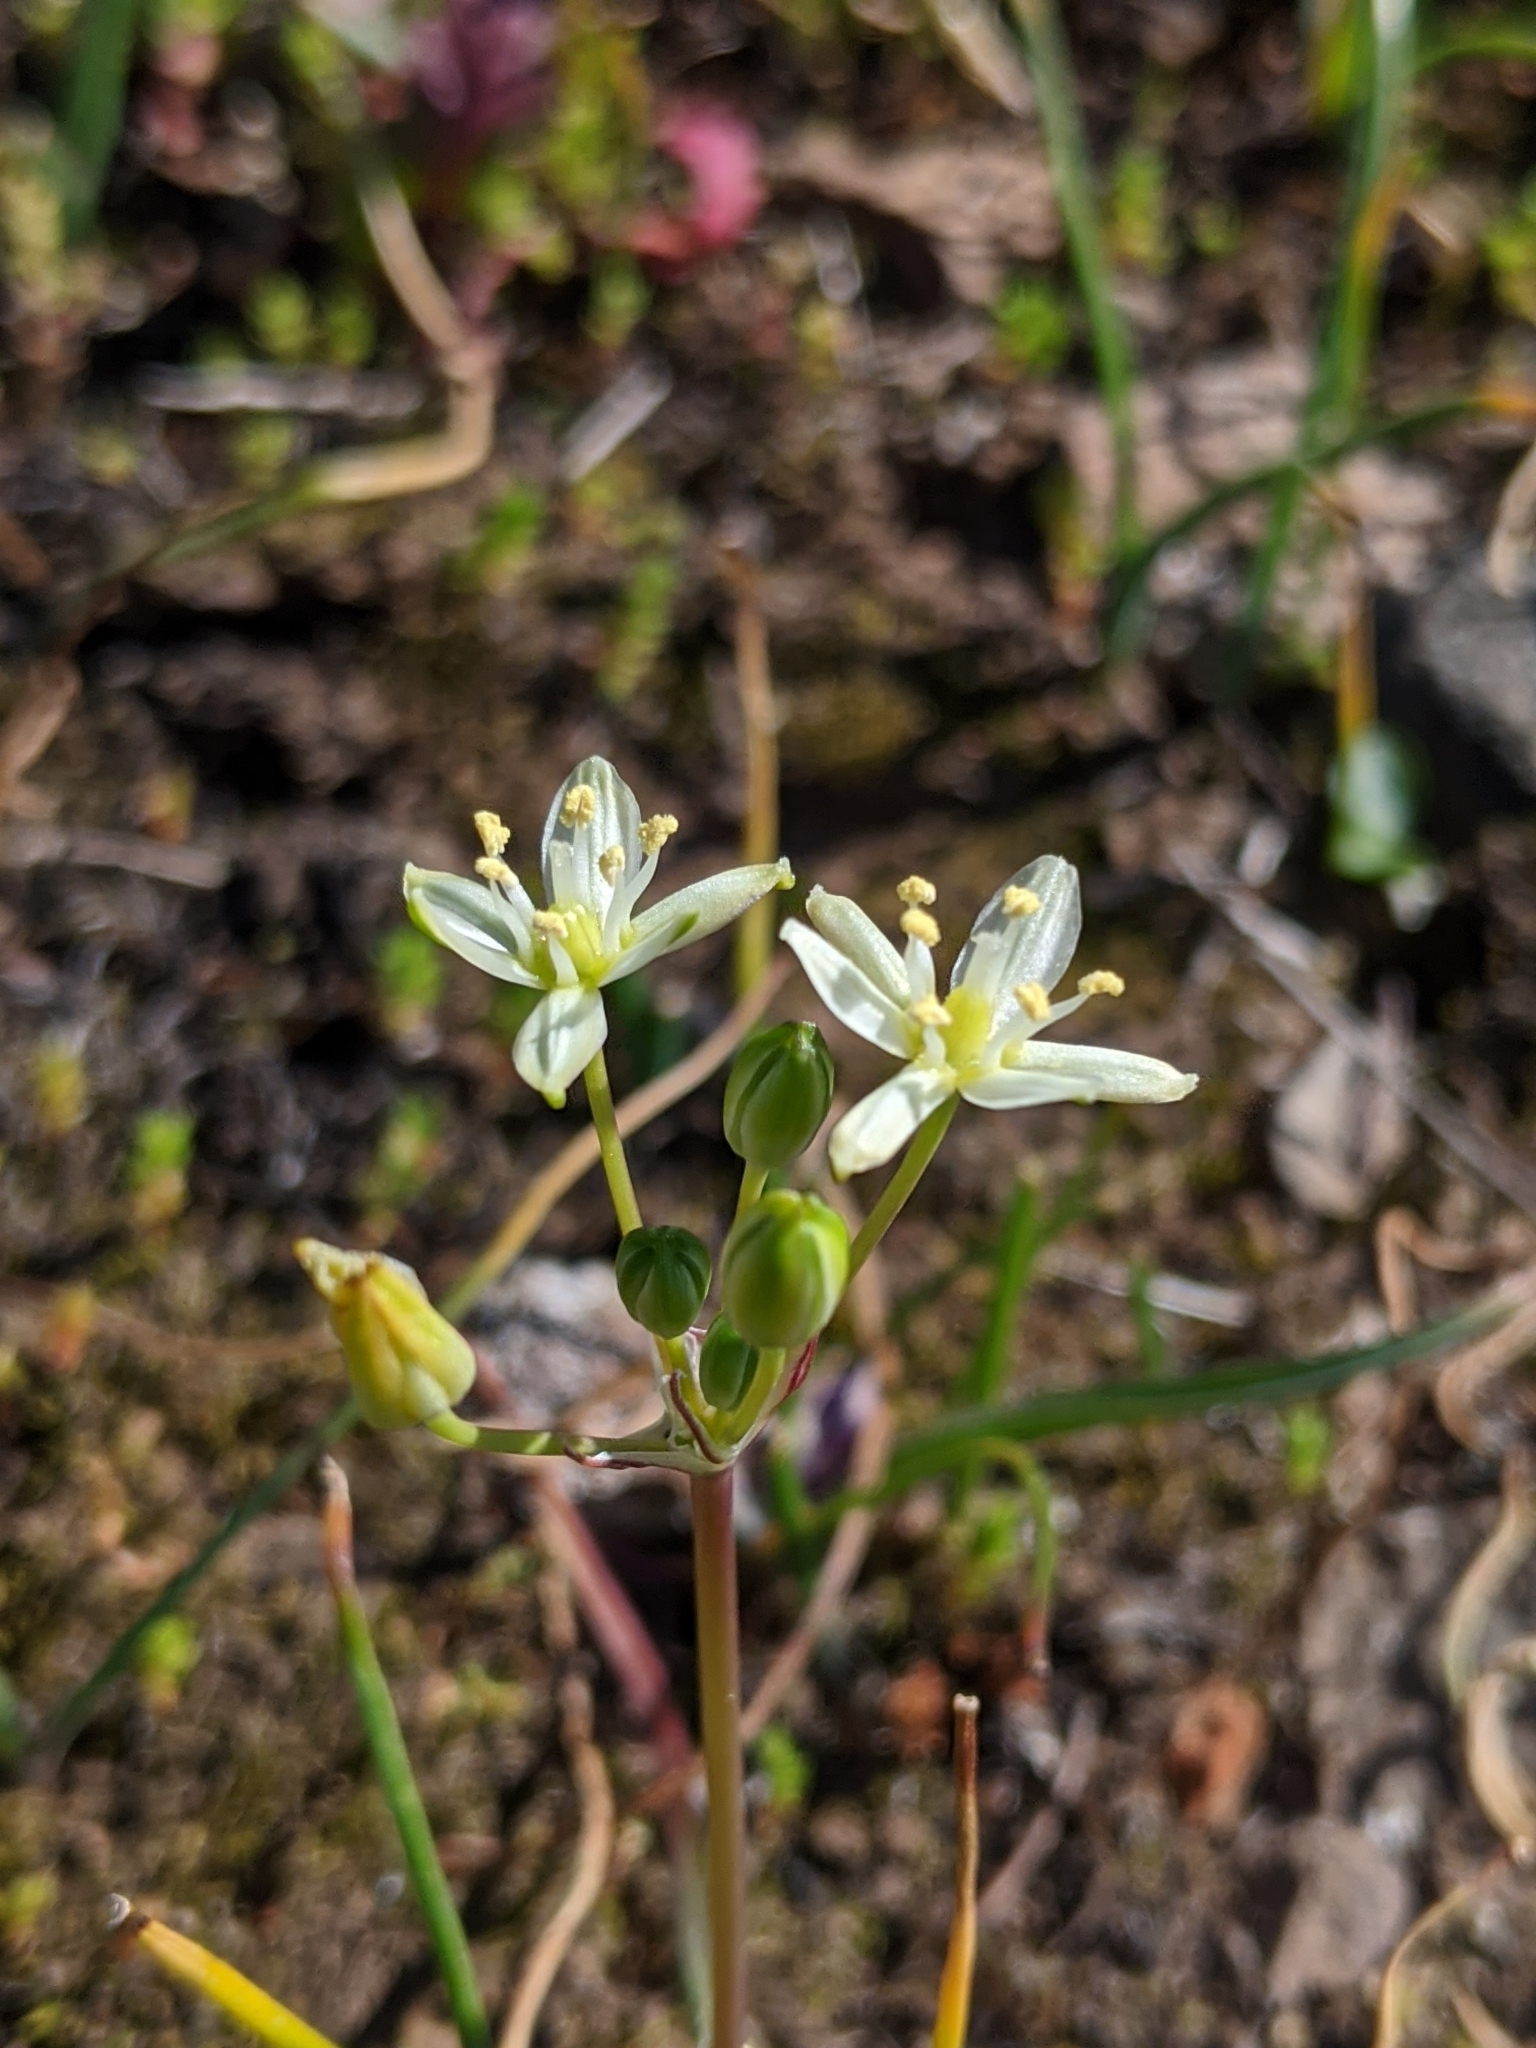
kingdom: Plantae
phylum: Tracheophyta
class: Liliopsida
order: Asparagales
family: Asparagaceae
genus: Muilla
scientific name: Muilla maritima
